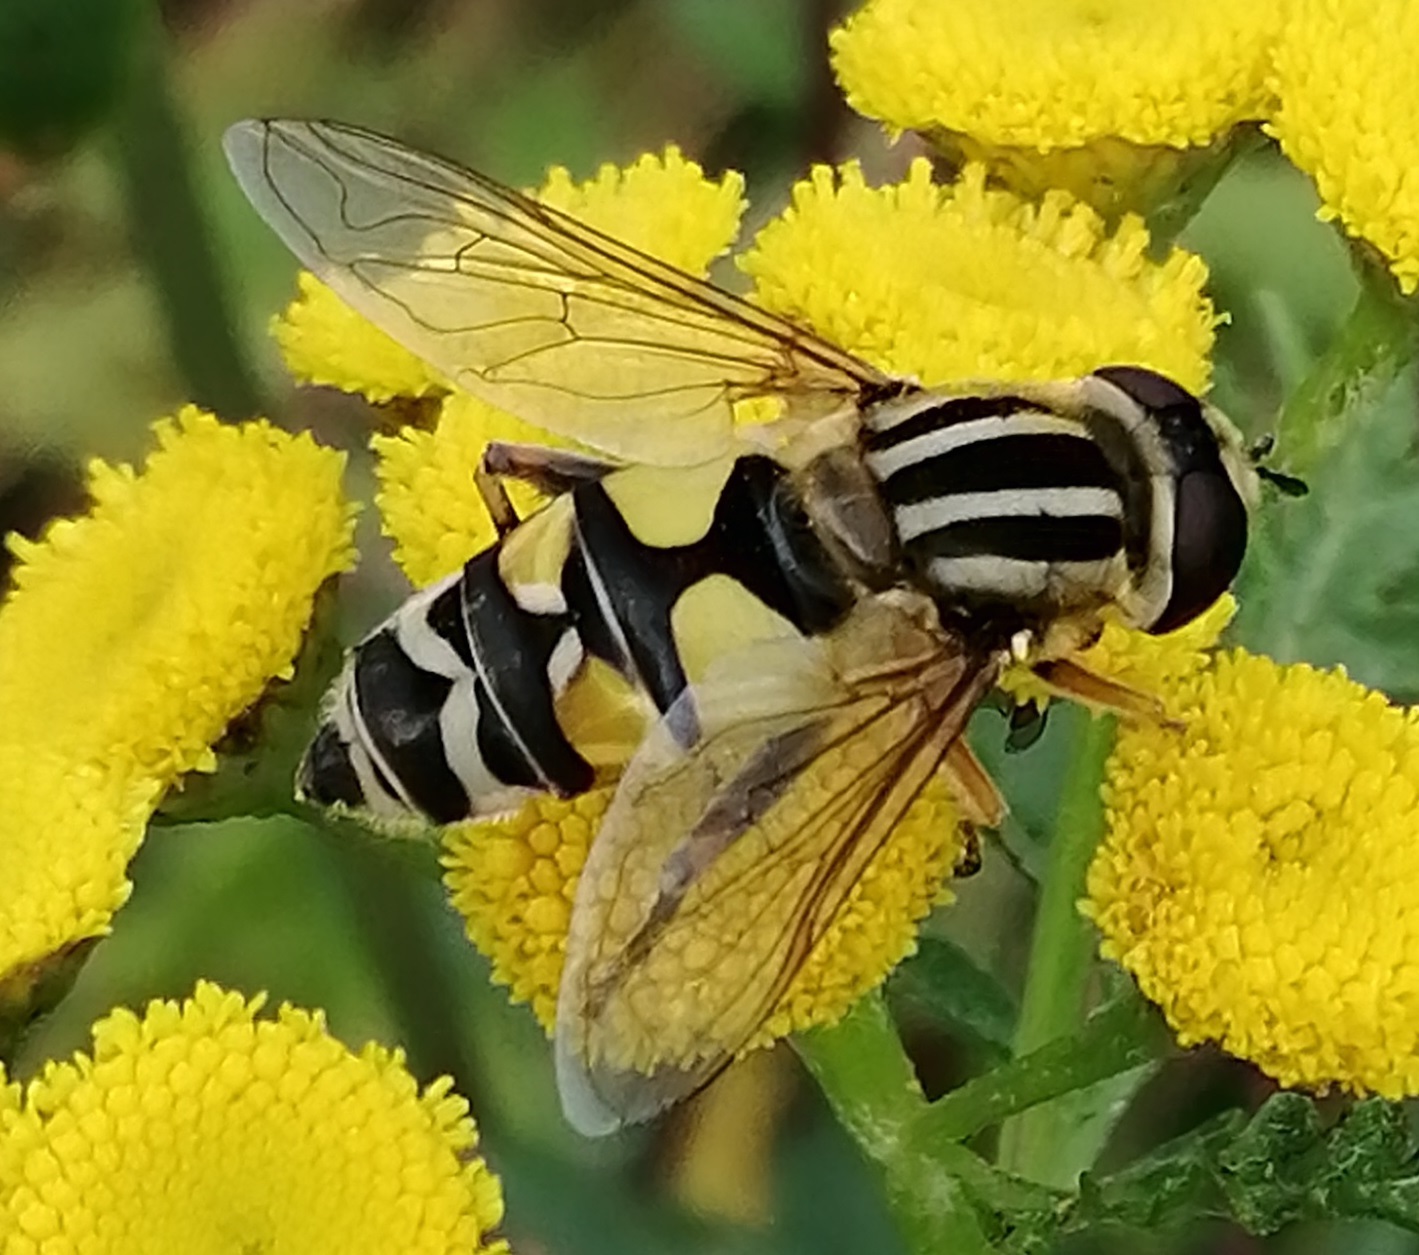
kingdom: Animalia
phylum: Arthropoda
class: Insecta
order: Diptera
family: Syrphidae
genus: Helophilus
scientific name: Helophilus trivittatus
